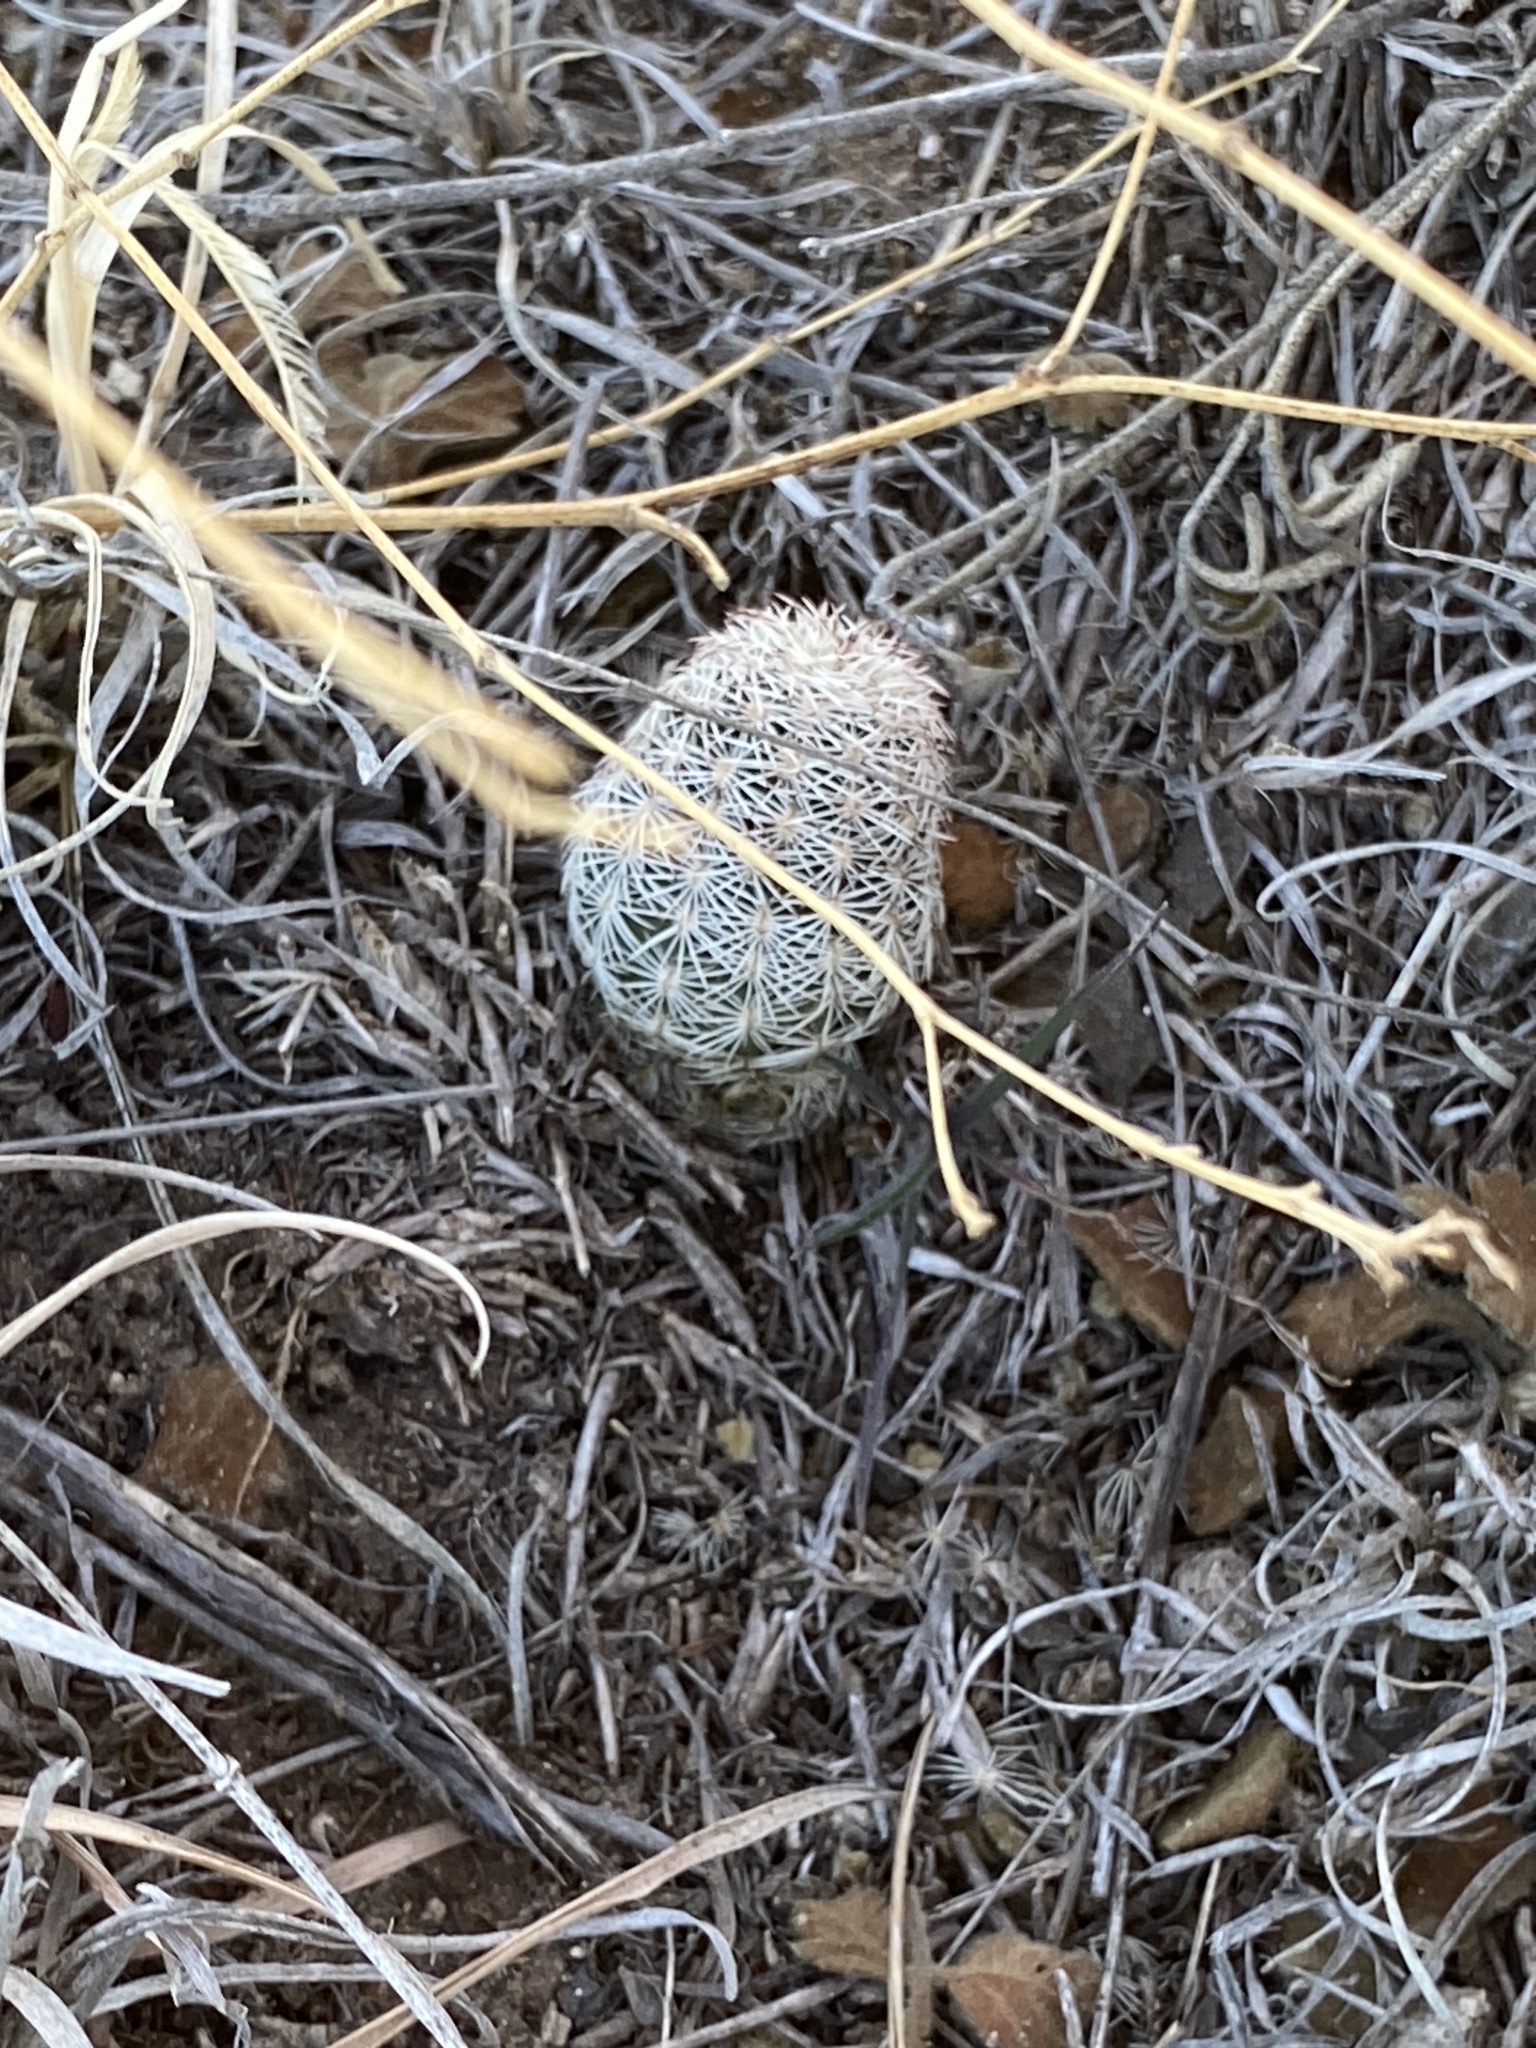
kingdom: Plantae
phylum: Tracheophyta
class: Magnoliopsida
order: Caryophyllales
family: Cactaceae
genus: Echinocereus
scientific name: Echinocereus reichenbachii
